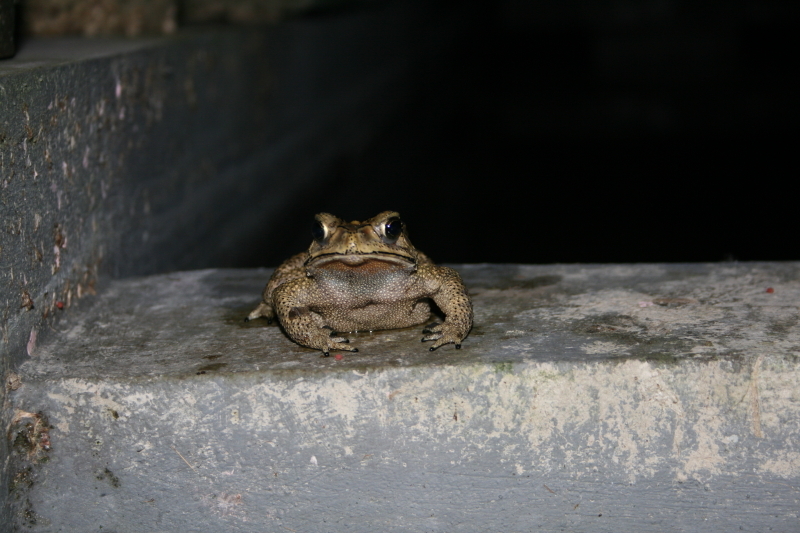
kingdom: Animalia
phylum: Chordata
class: Amphibia
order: Anura
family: Bufonidae
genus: Duttaphrynus
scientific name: Duttaphrynus melanostictus
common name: Common sunda toad
